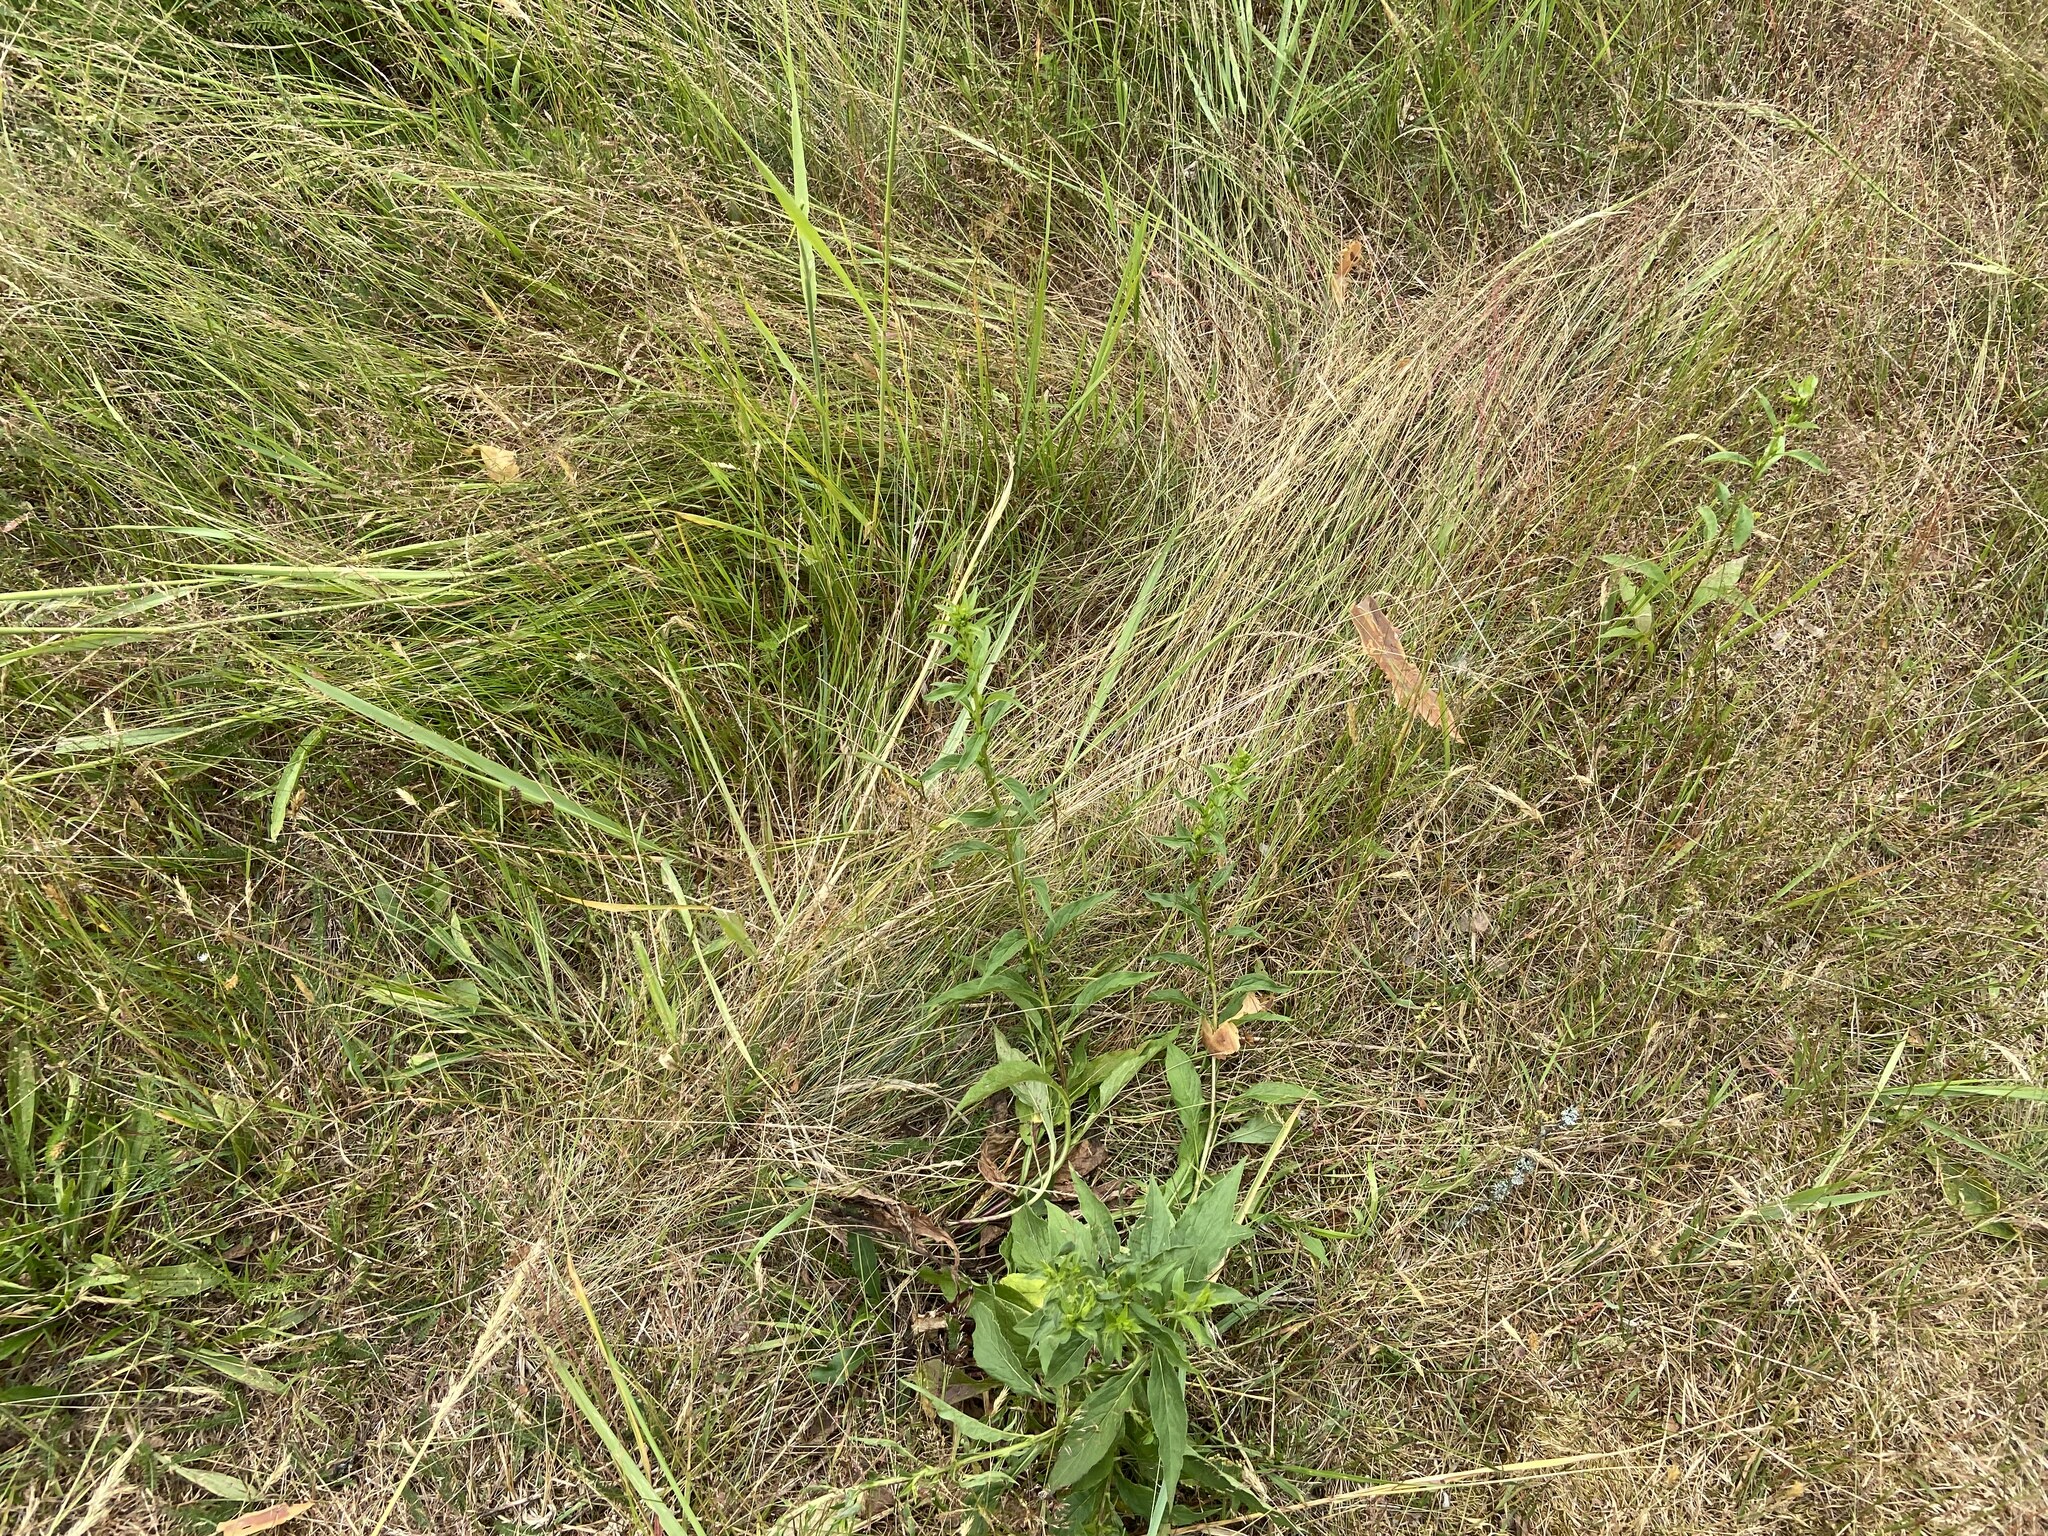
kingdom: Plantae
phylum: Tracheophyta
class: Magnoliopsida
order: Asterales
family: Asteraceae
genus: Solidago
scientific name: Solidago virgaurea
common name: Goldenrod
